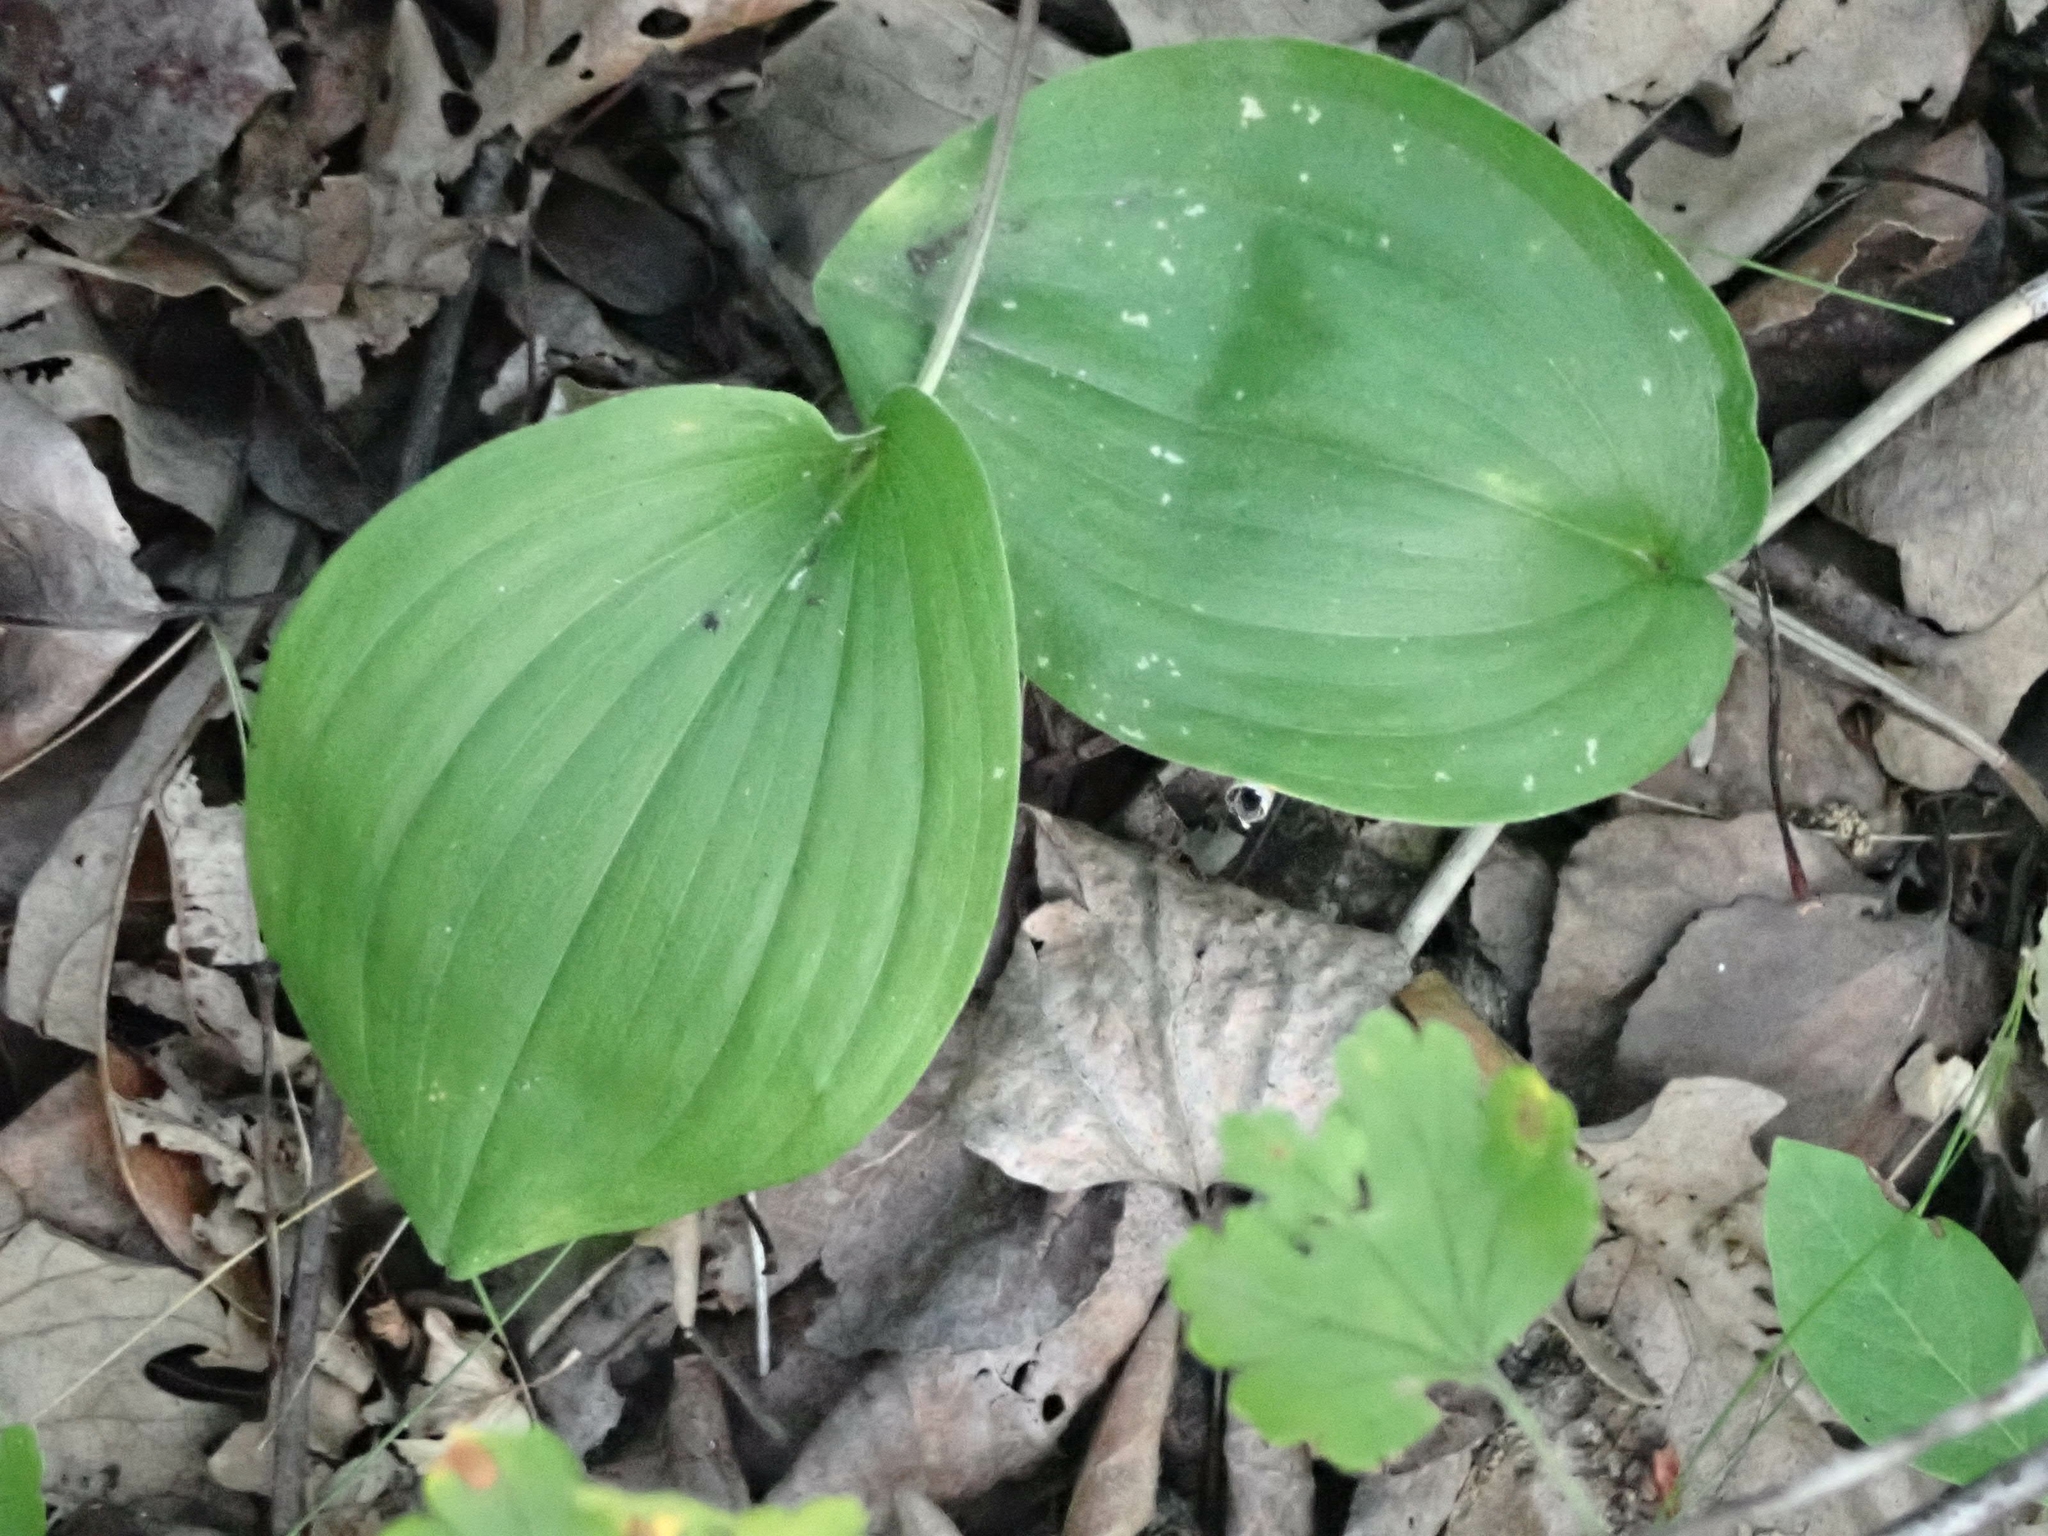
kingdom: Plantae
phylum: Tracheophyta
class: Liliopsida
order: Asparagales
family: Asparagaceae
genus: Maianthemum
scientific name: Maianthemum canadense
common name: False lily-of-the-valley
